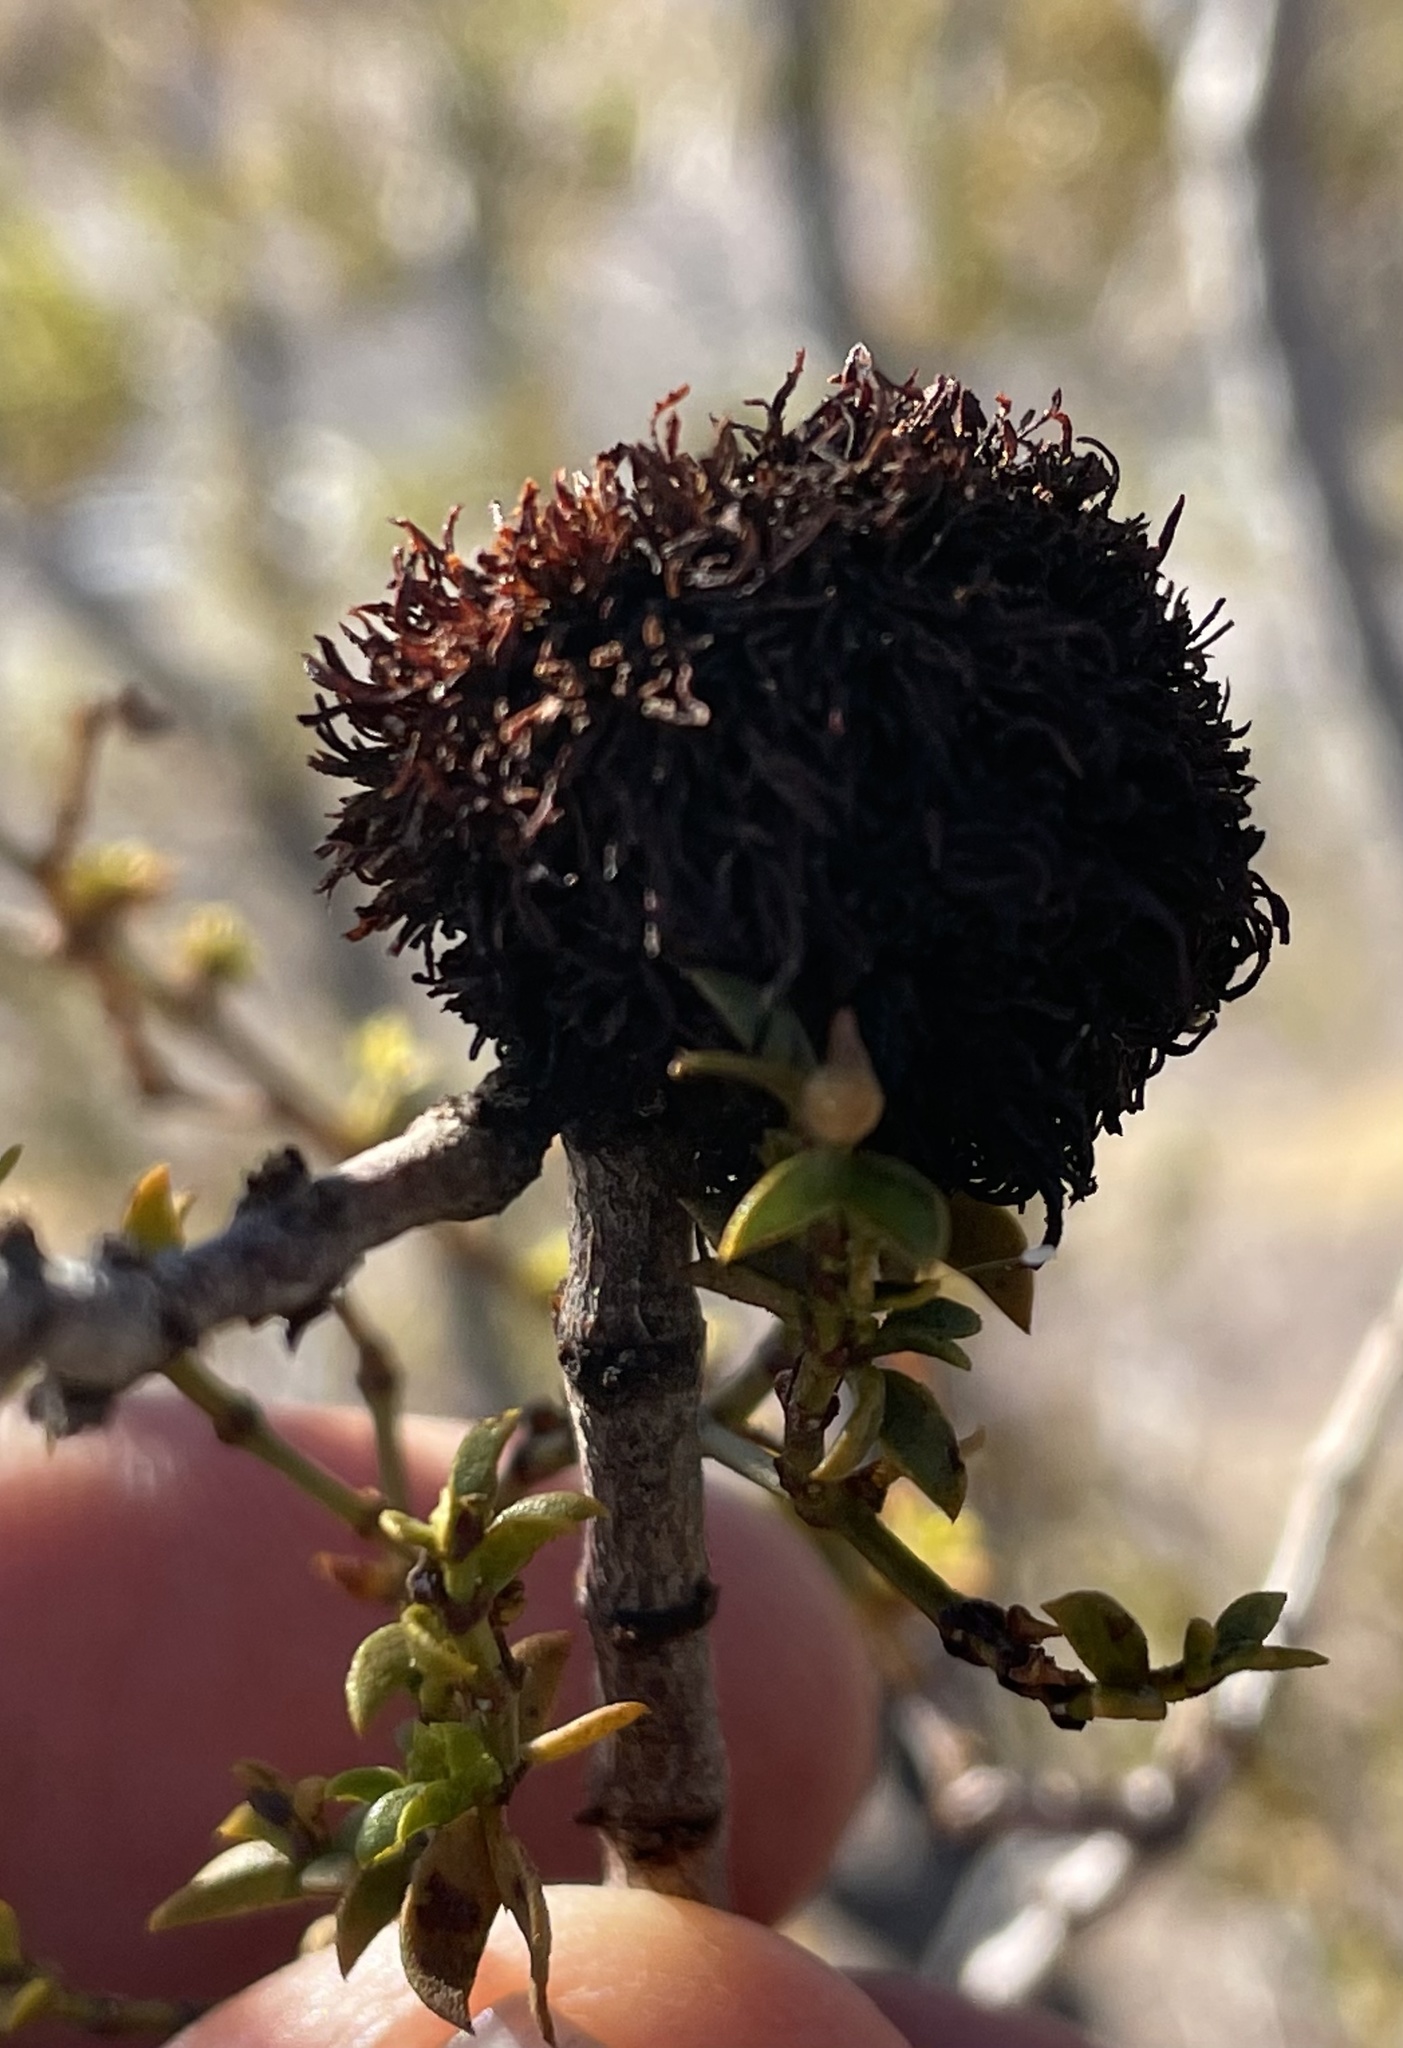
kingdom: Animalia
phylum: Arthropoda
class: Insecta
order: Diptera
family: Cecidomyiidae
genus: Asphondylia
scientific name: Asphondylia auripila
